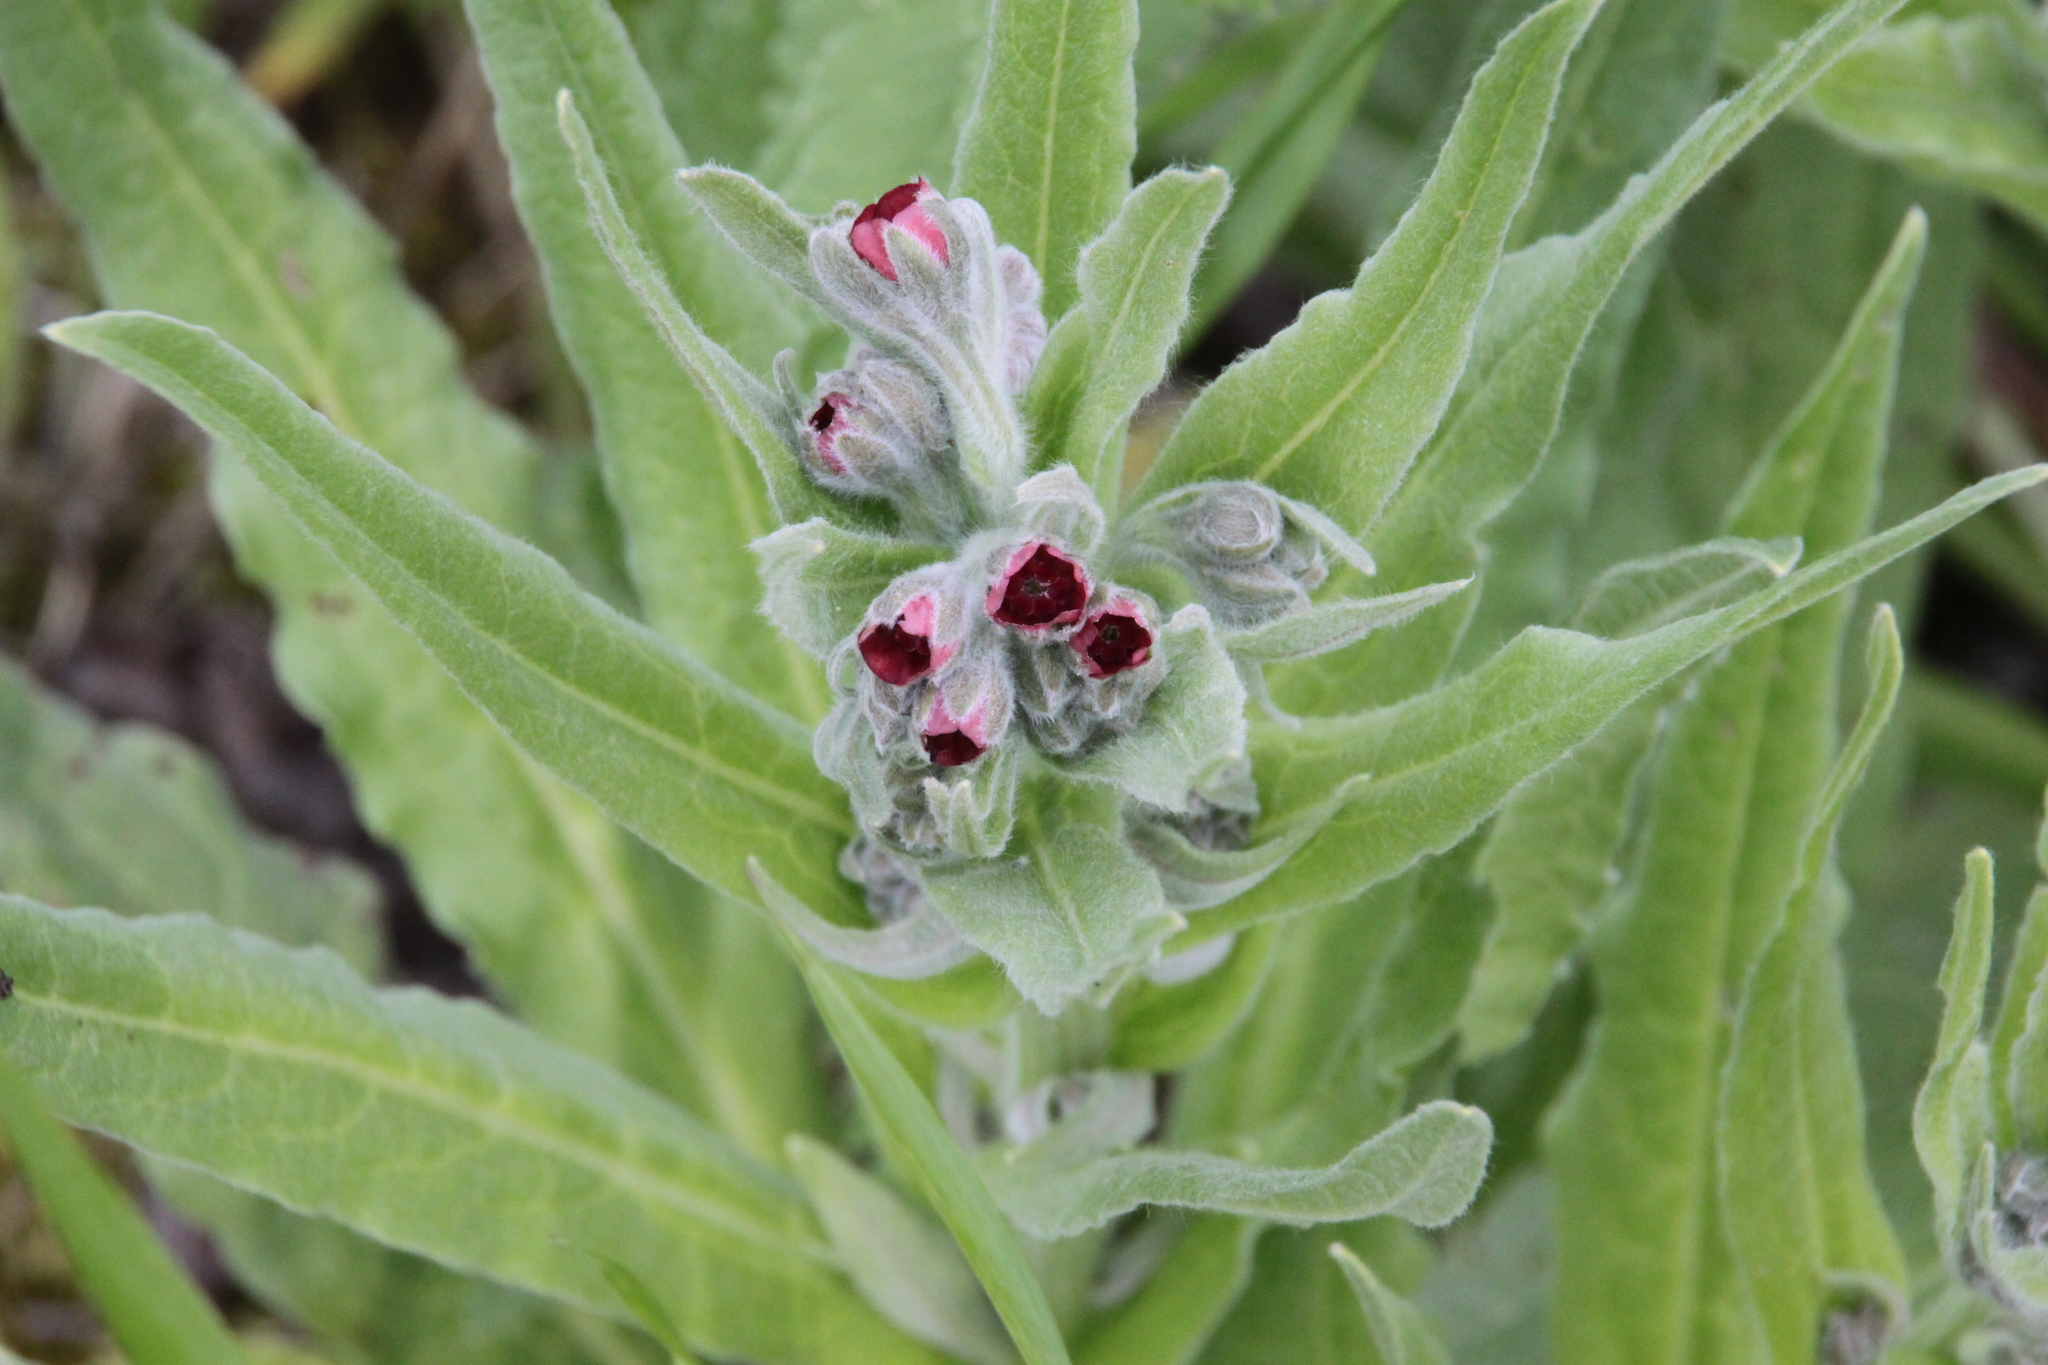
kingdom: Plantae
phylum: Tracheophyta
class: Magnoliopsida
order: Boraginales
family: Boraginaceae
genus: Cynoglossum
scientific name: Cynoglossum officinale
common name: Hound's-tongue
